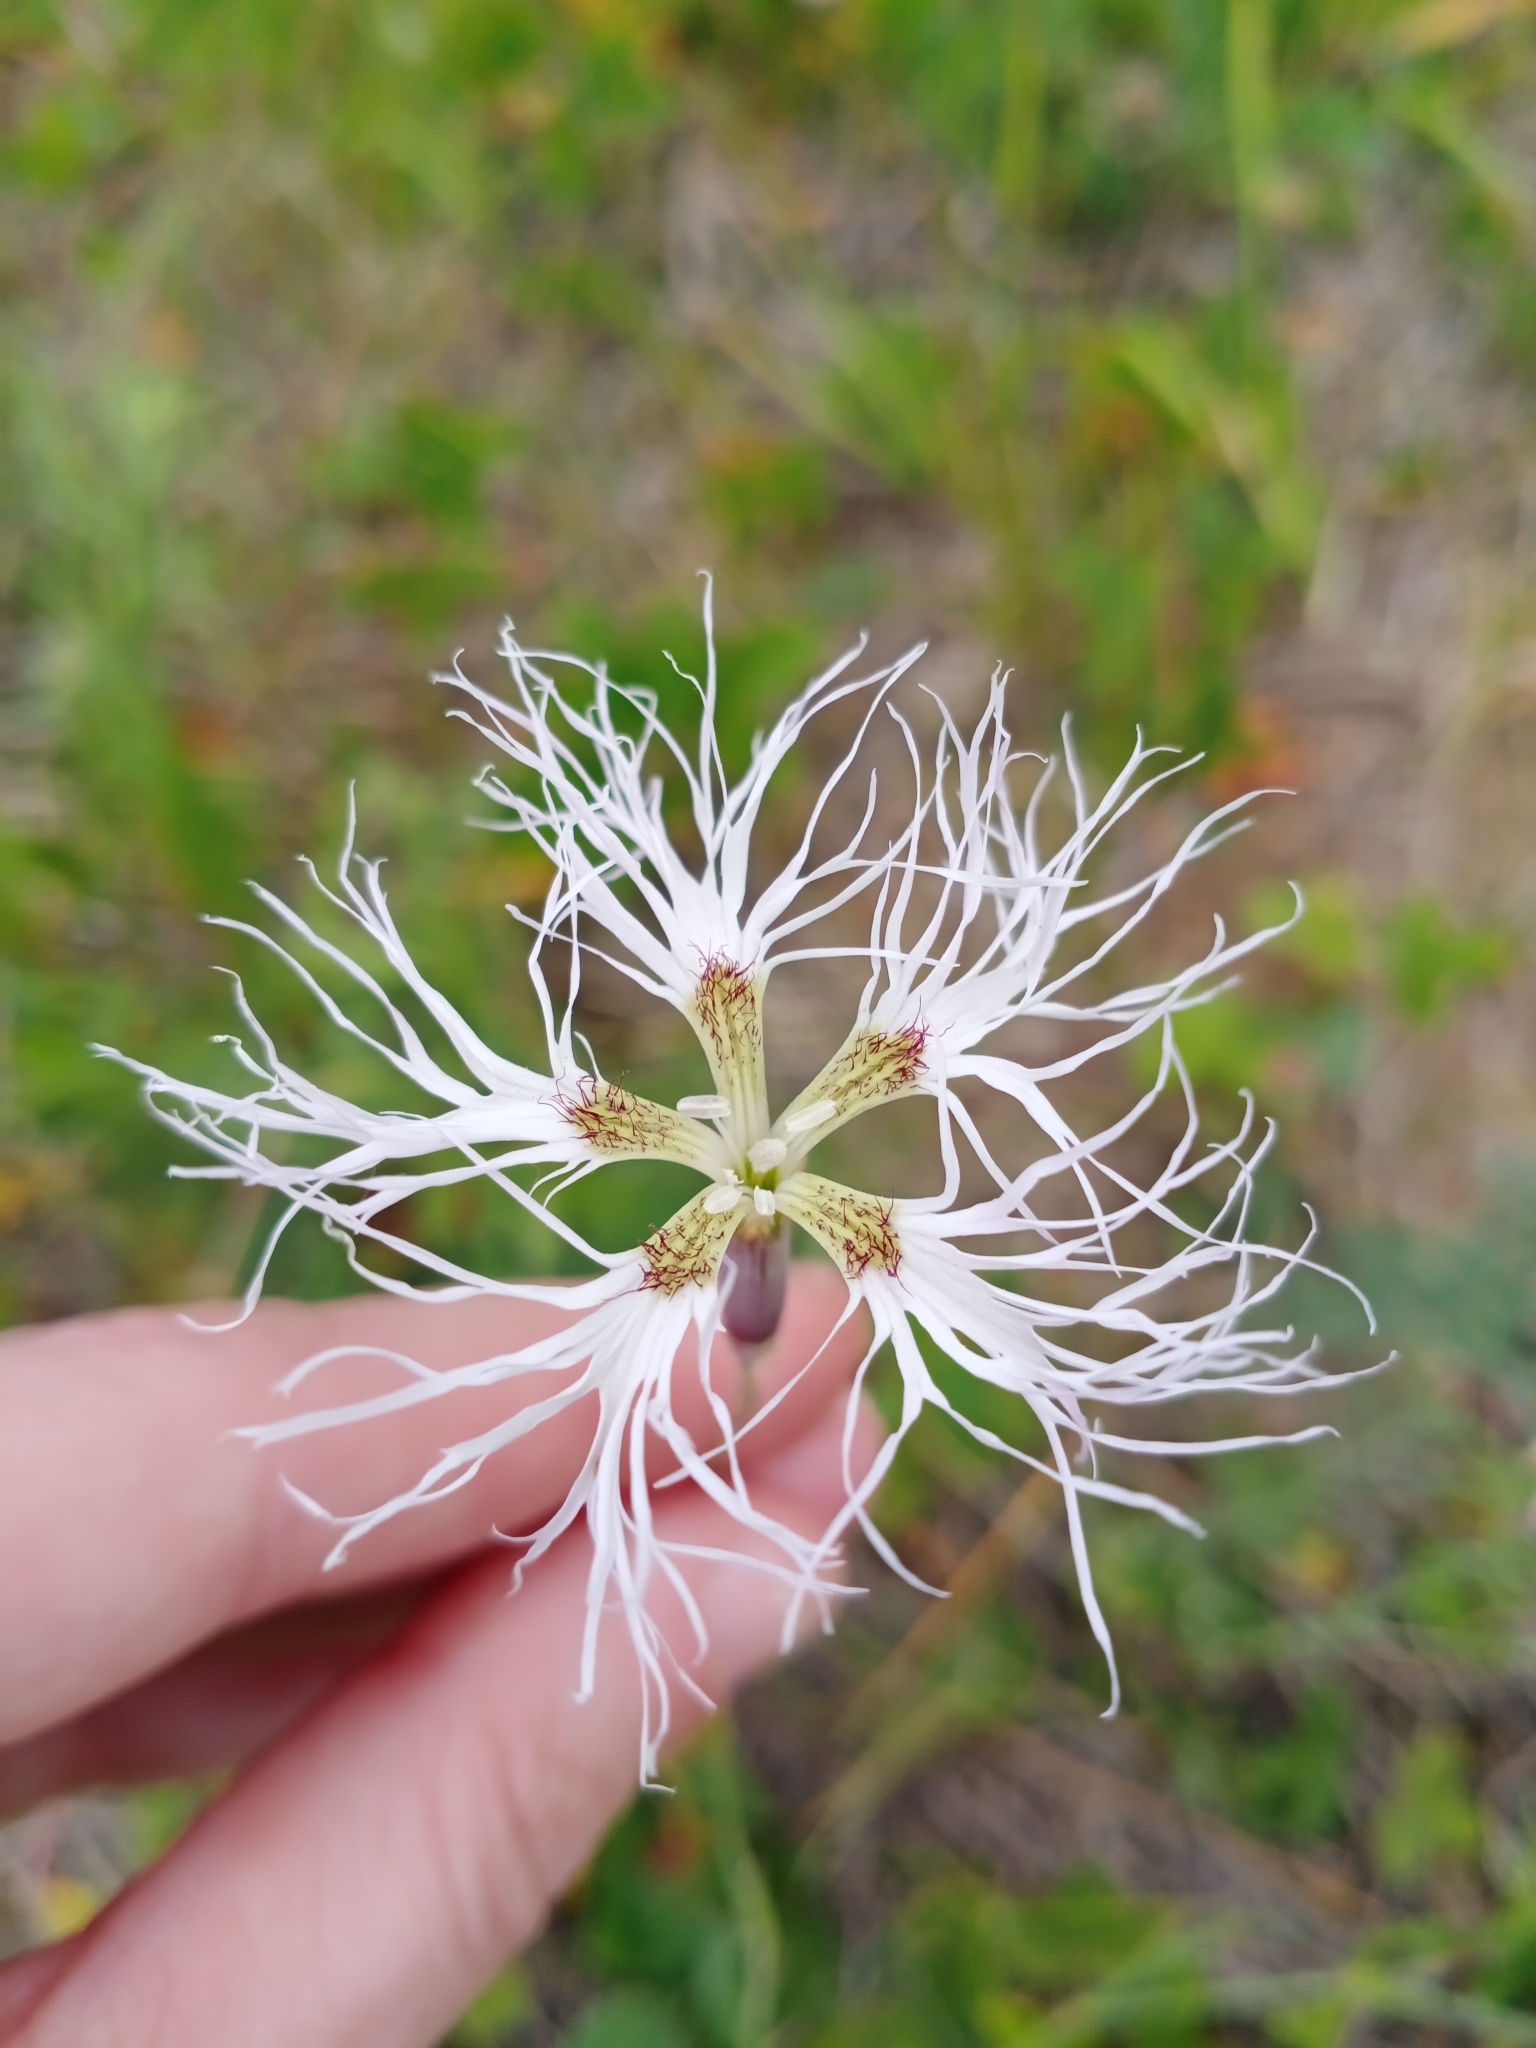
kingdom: Plantae
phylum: Tracheophyta
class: Magnoliopsida
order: Caryophyllales
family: Caryophyllaceae
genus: Dianthus
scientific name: Dianthus superbus
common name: Fringed pink
